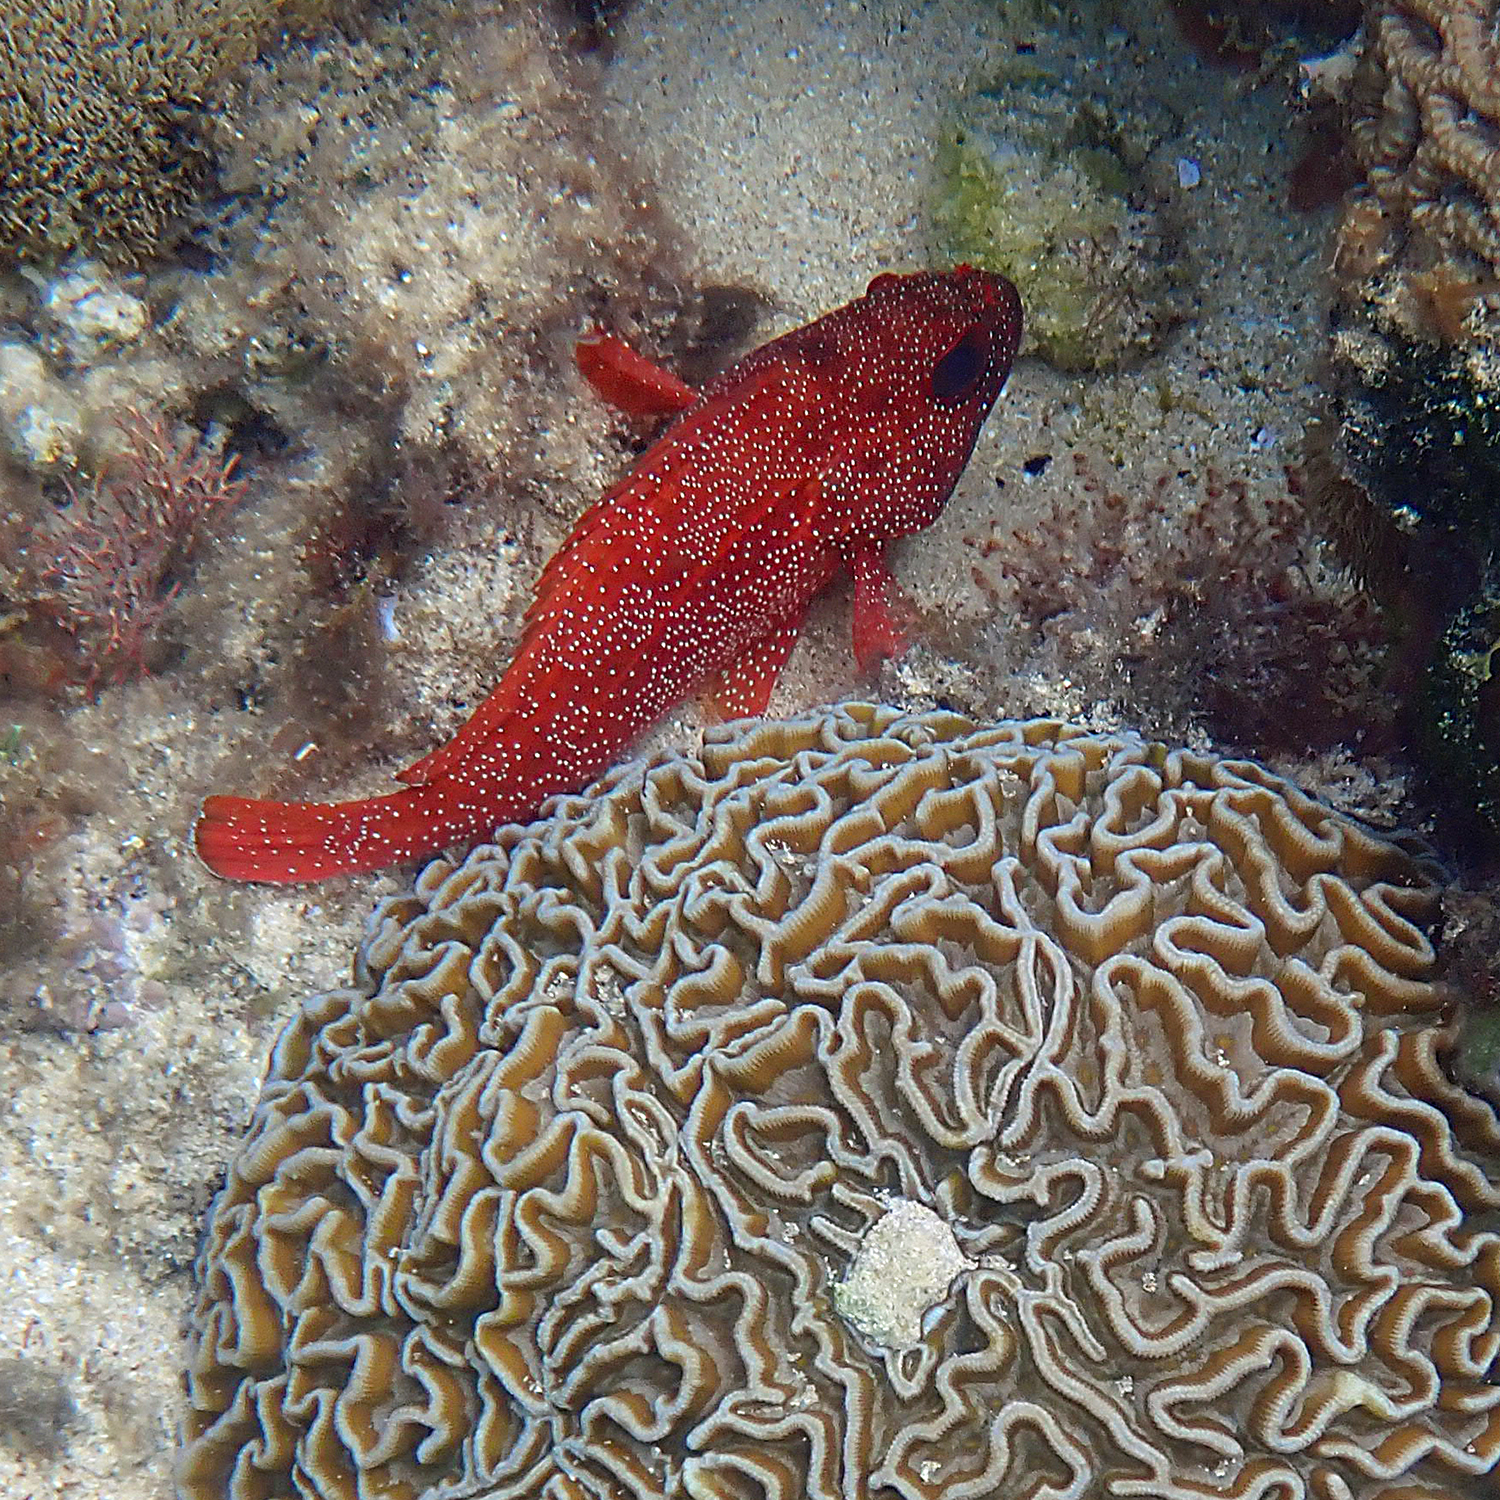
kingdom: Animalia
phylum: Chordata
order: Perciformes
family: Serranidae
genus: Trachypoma
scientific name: Trachypoma macracanthus
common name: Toadstool grouper
